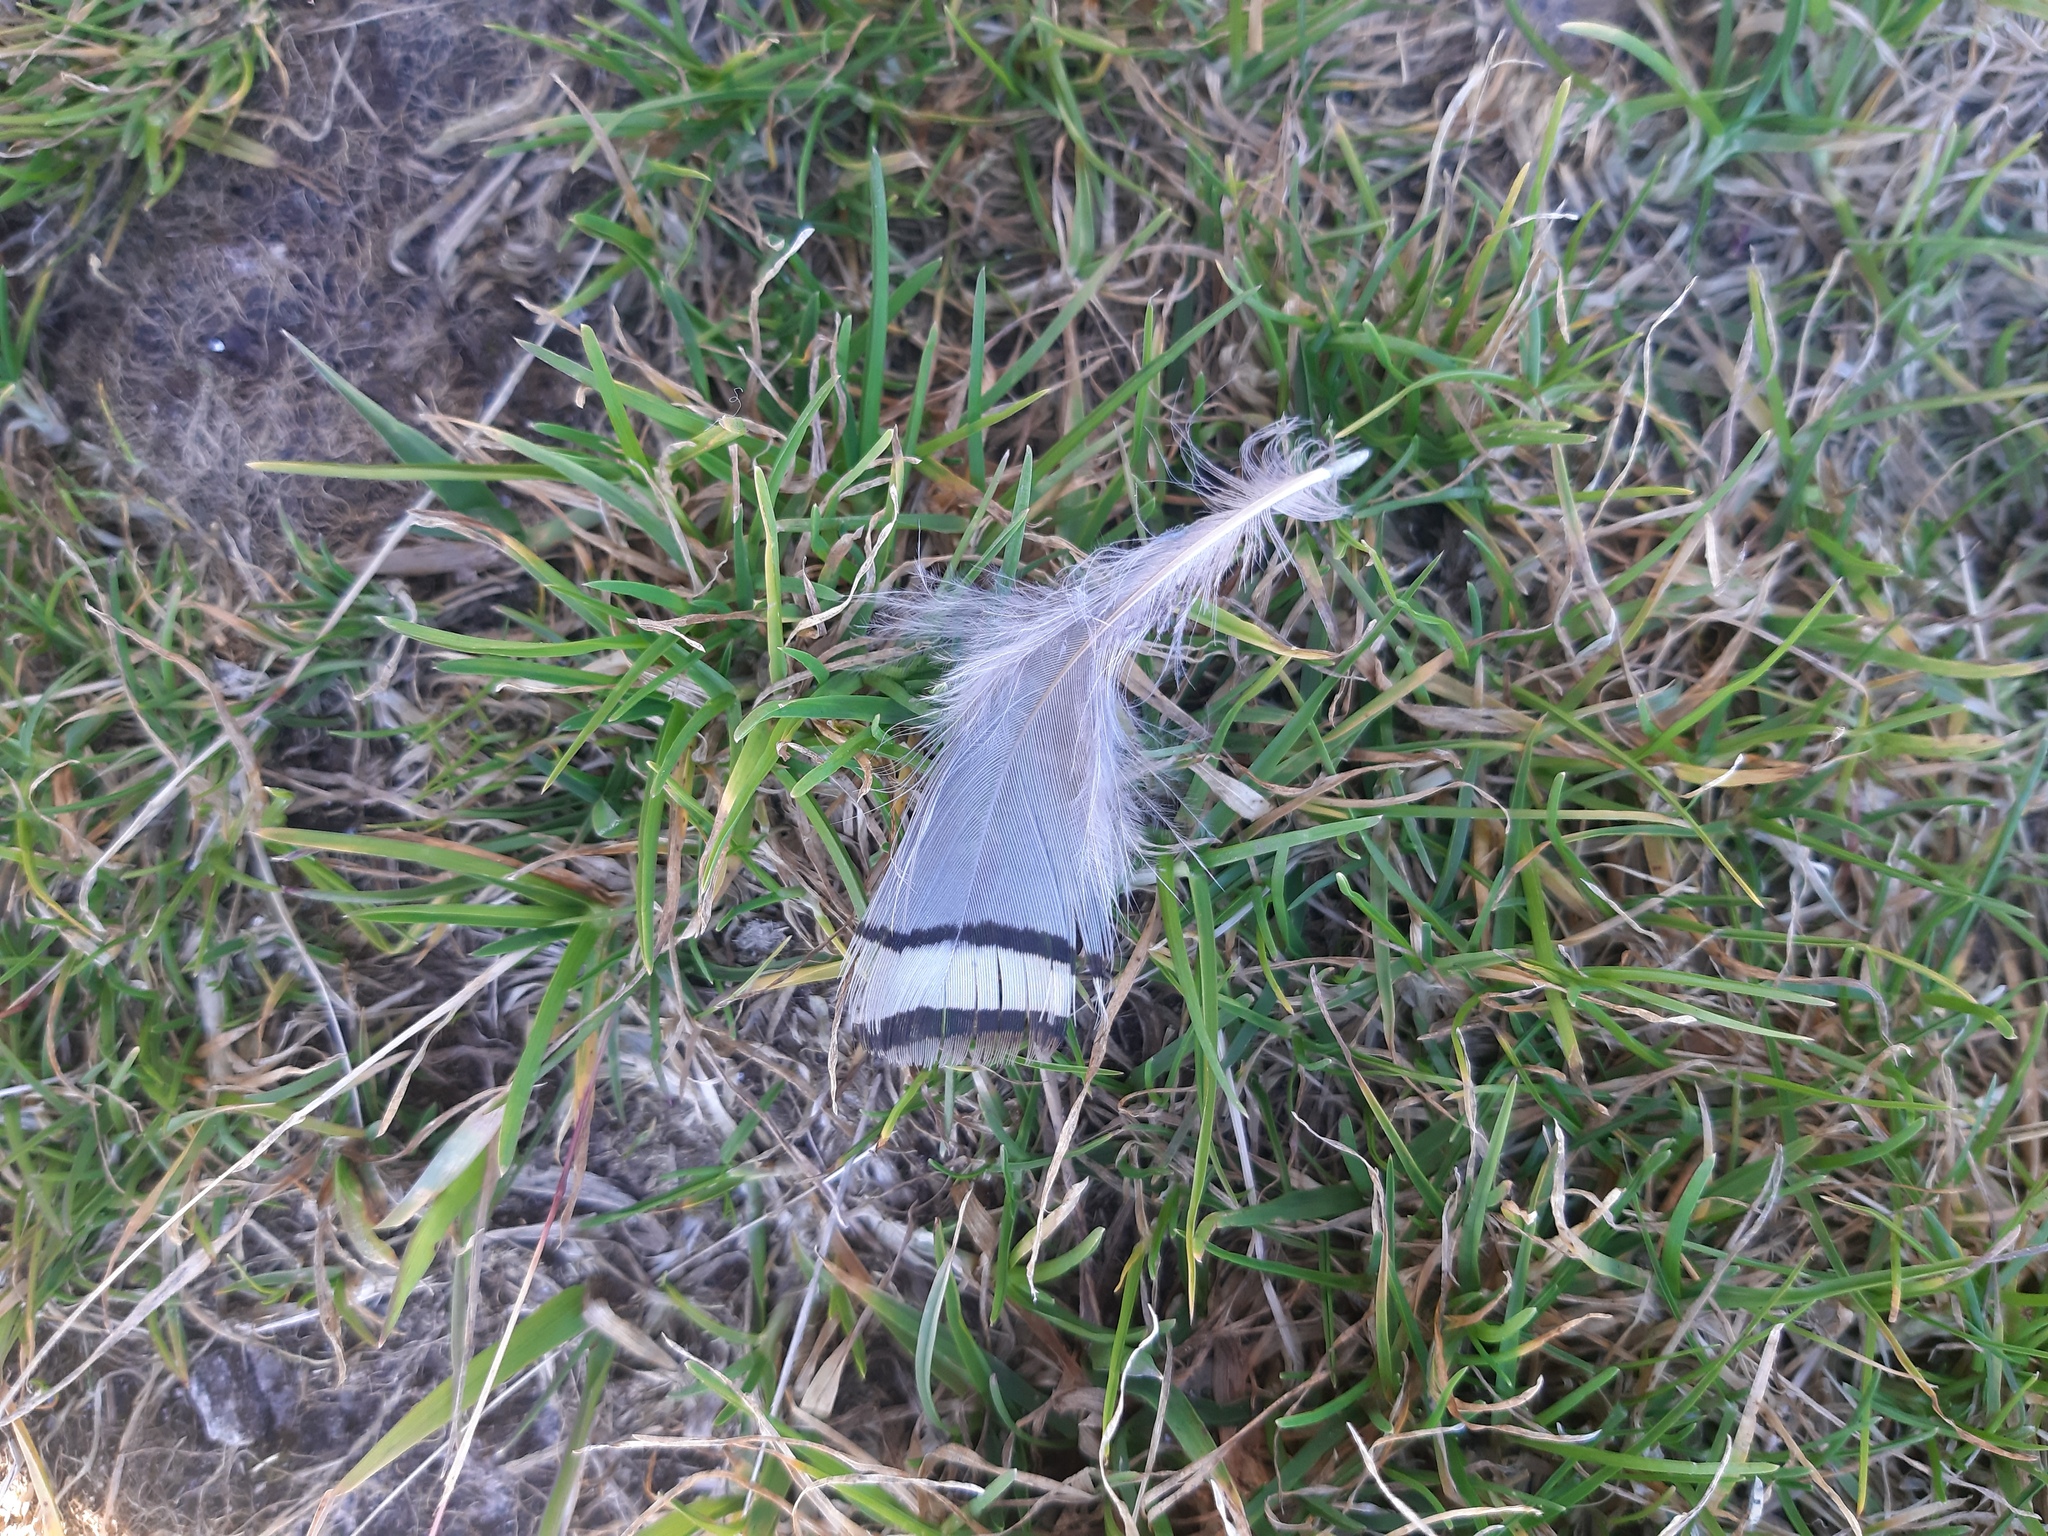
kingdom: Animalia
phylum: Chordata
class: Aves
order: Galliformes
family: Phasianidae
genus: Alectoris
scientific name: Alectoris graeca
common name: Rock partridge
